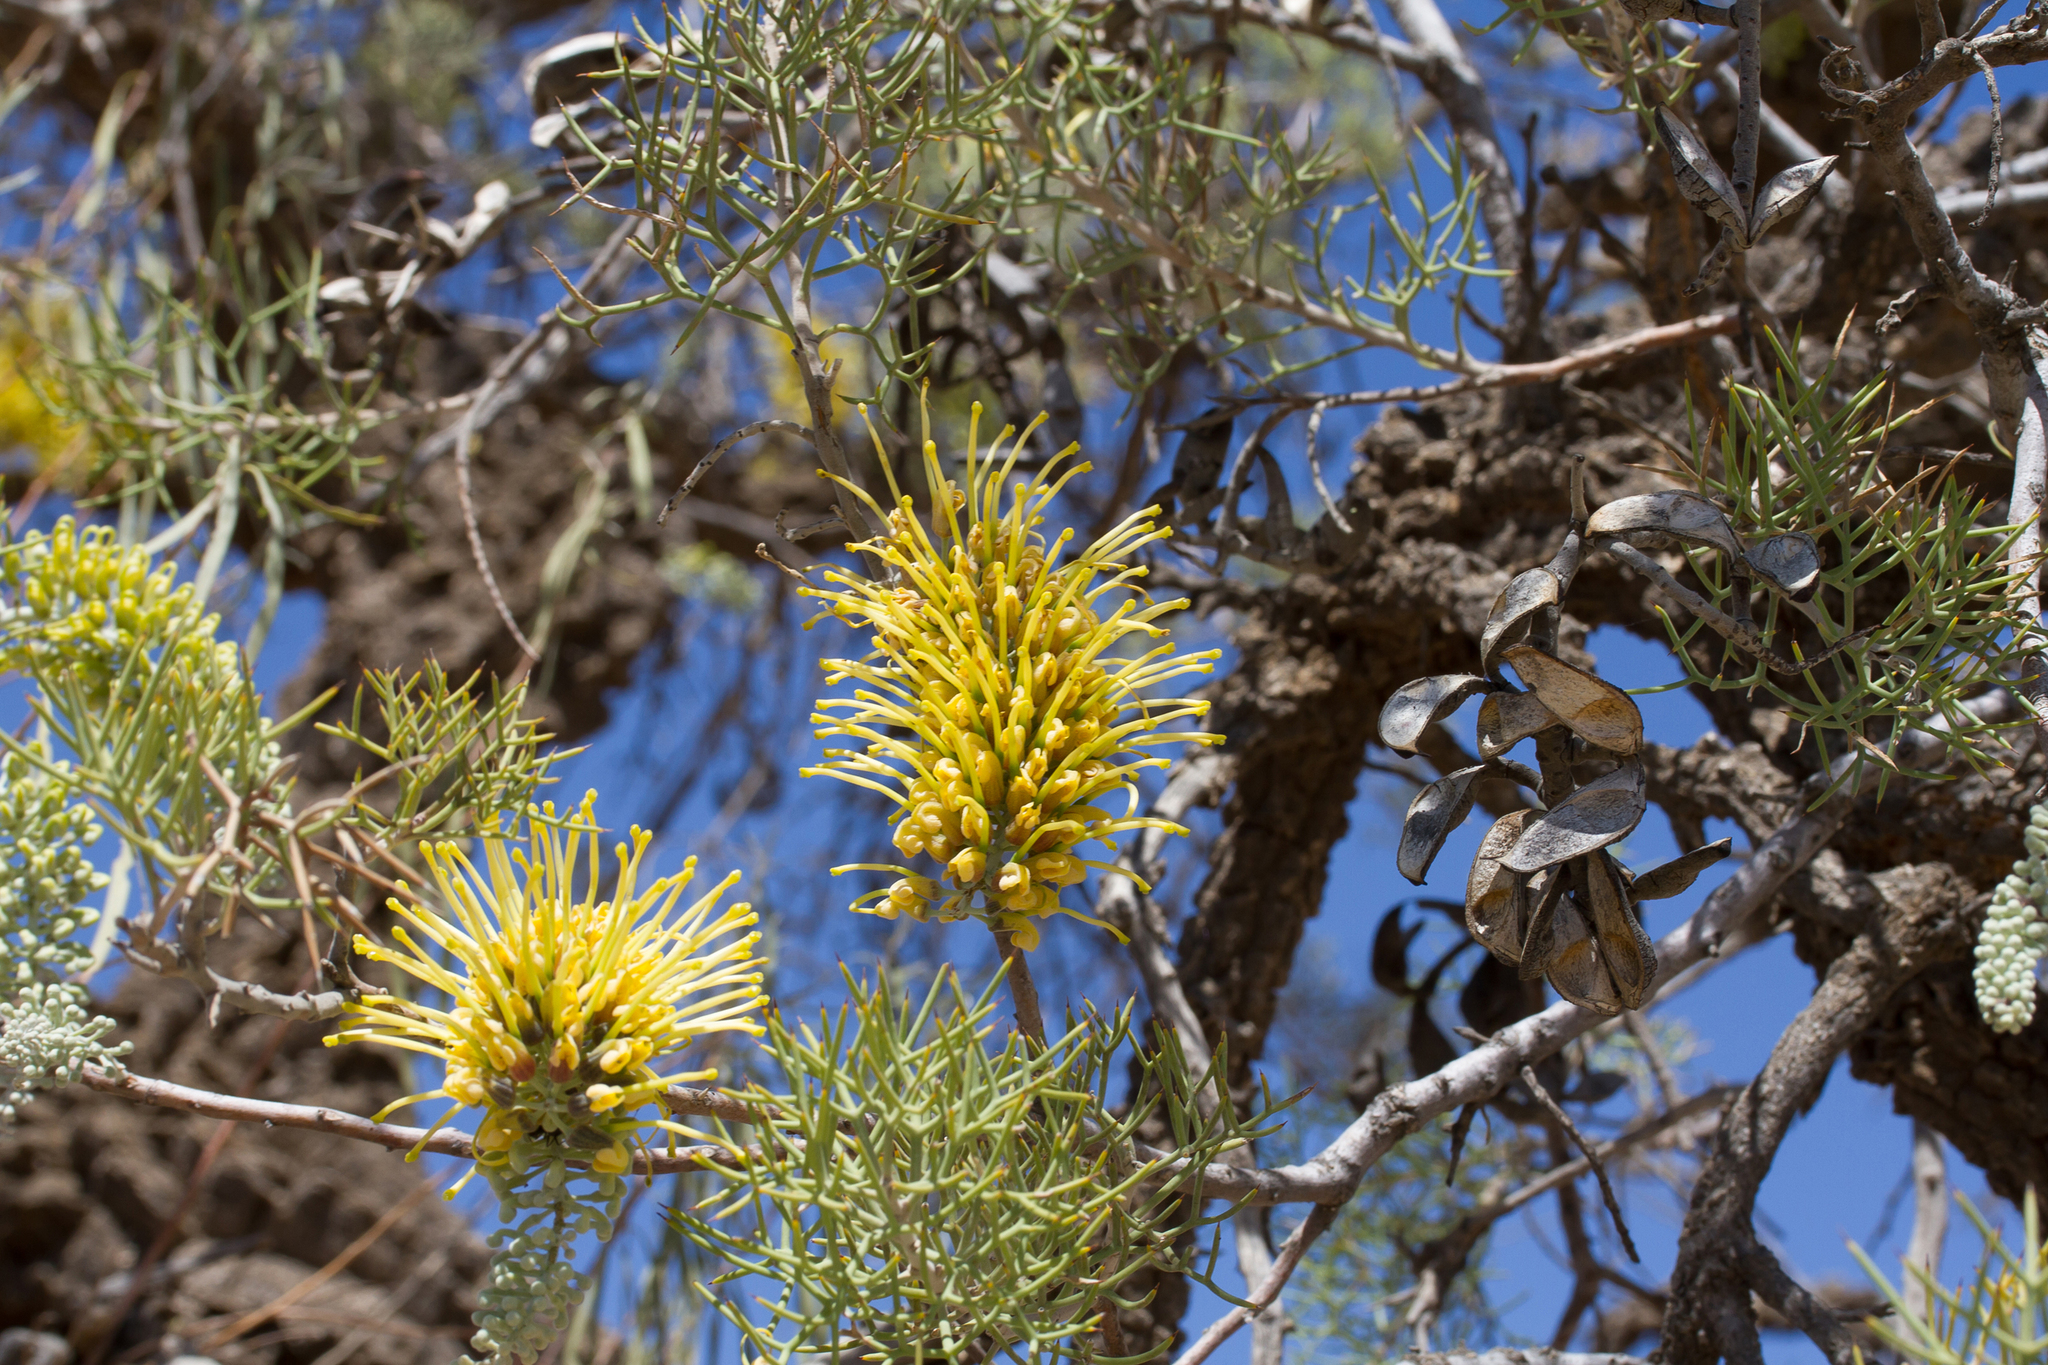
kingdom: Plantae
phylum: Tracheophyta
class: Magnoliopsida
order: Proteales
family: Proteaceae
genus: Hakea
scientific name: Hakea eyreana
